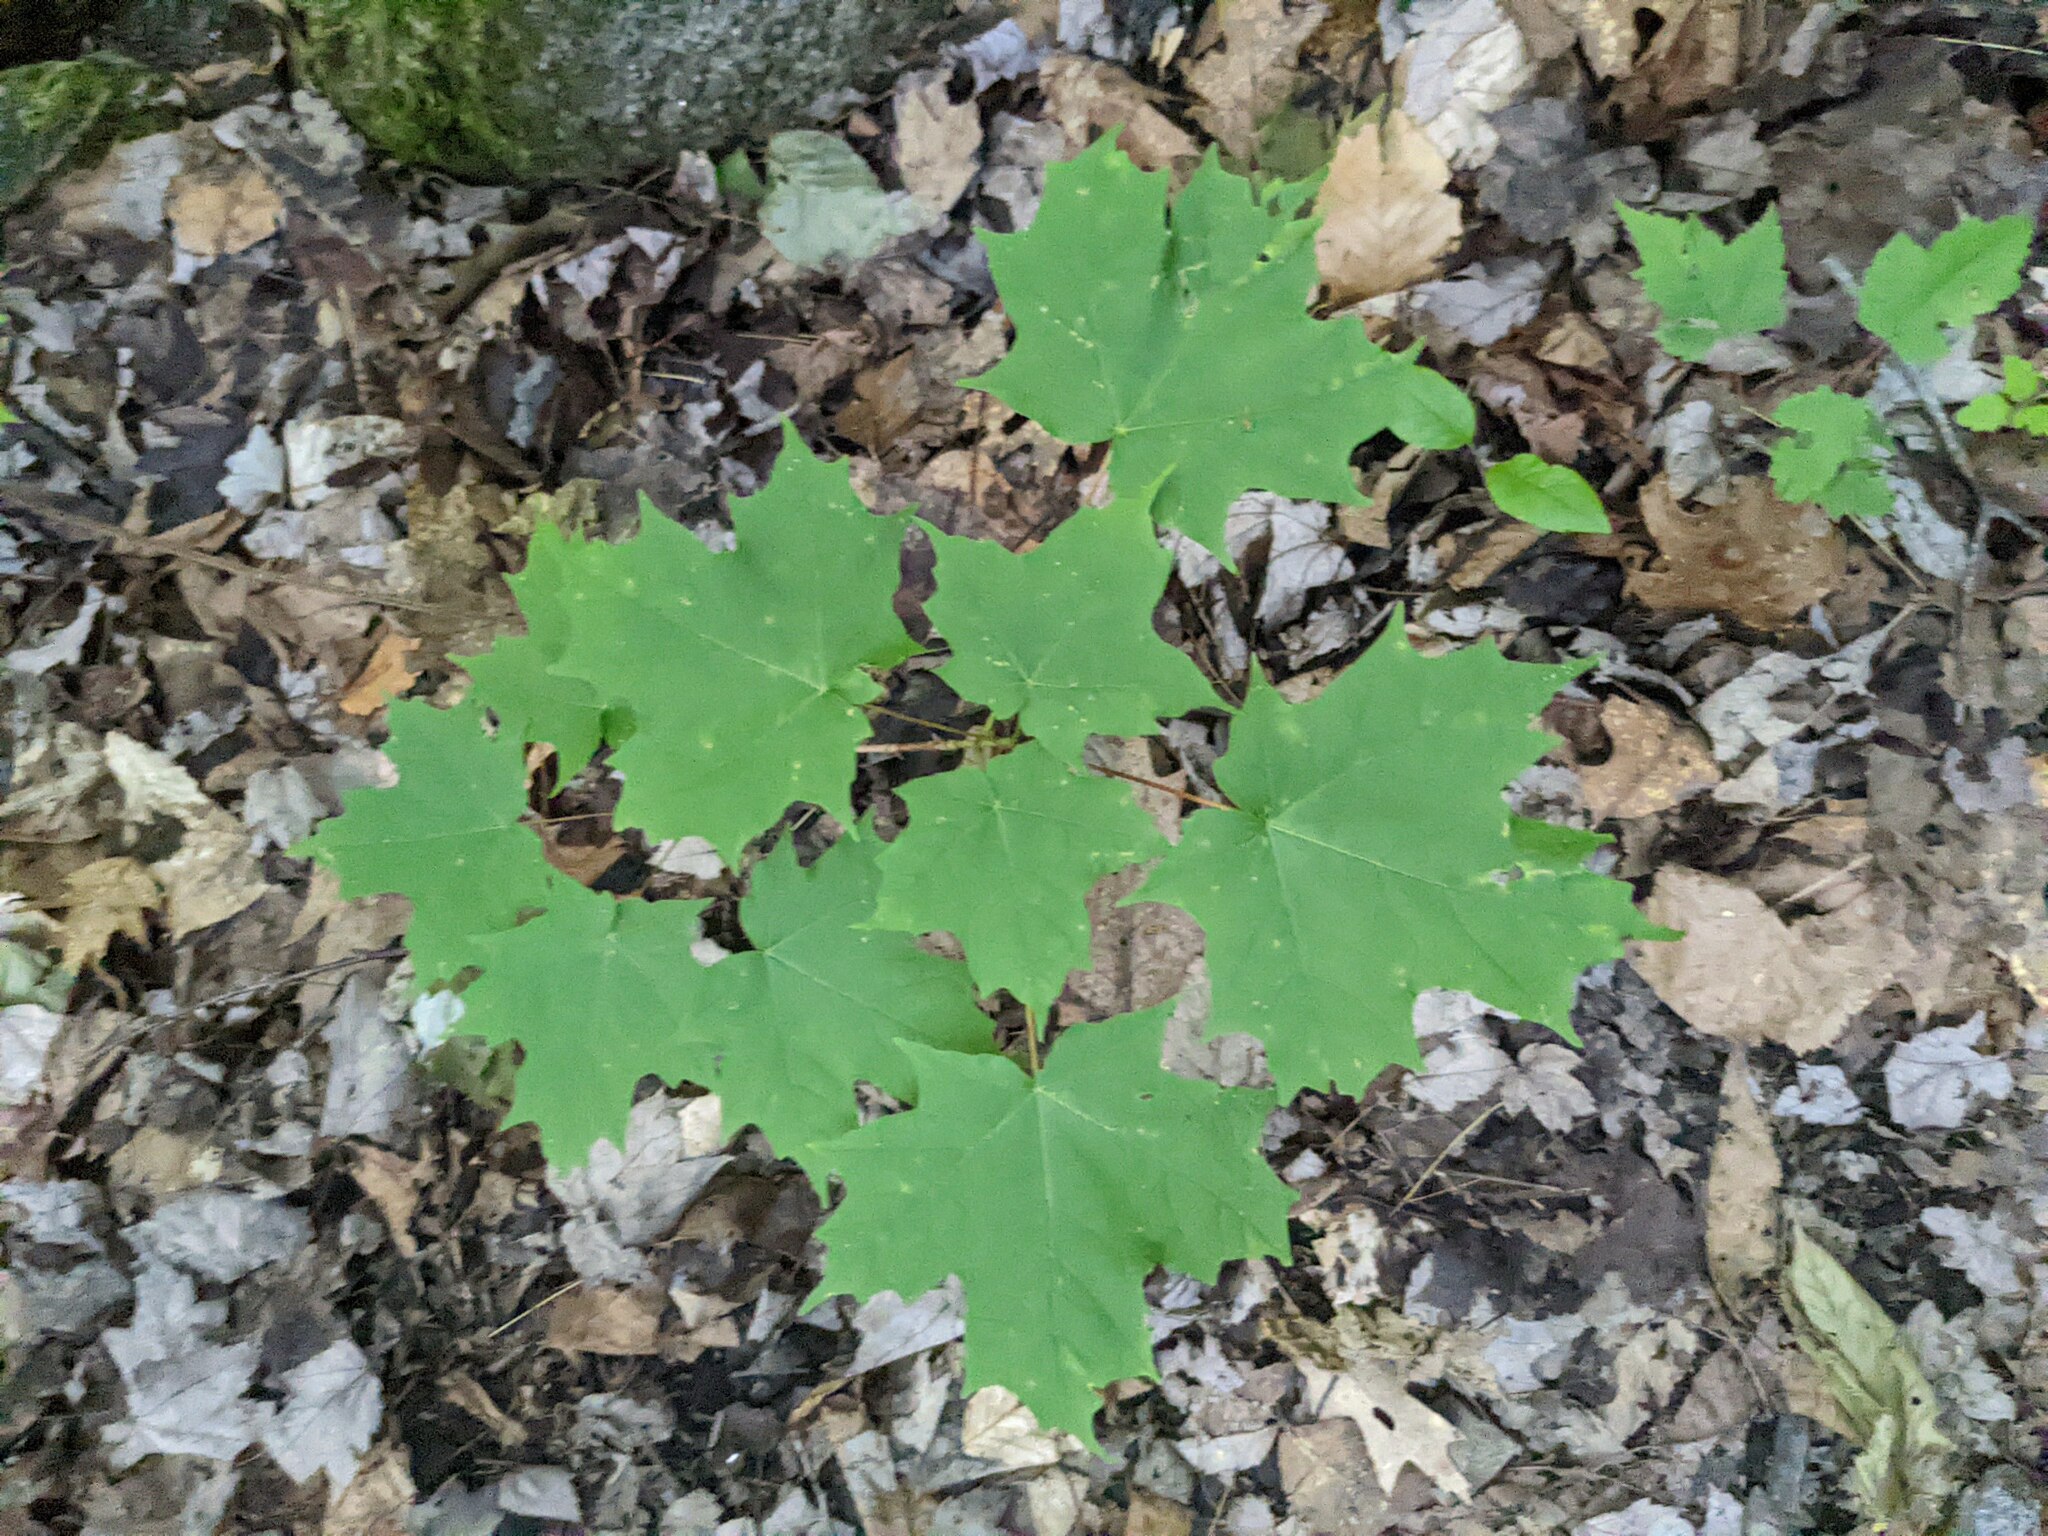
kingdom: Plantae
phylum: Tracheophyta
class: Magnoliopsida
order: Sapindales
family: Sapindaceae
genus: Acer
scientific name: Acer saccharum
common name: Sugar maple
